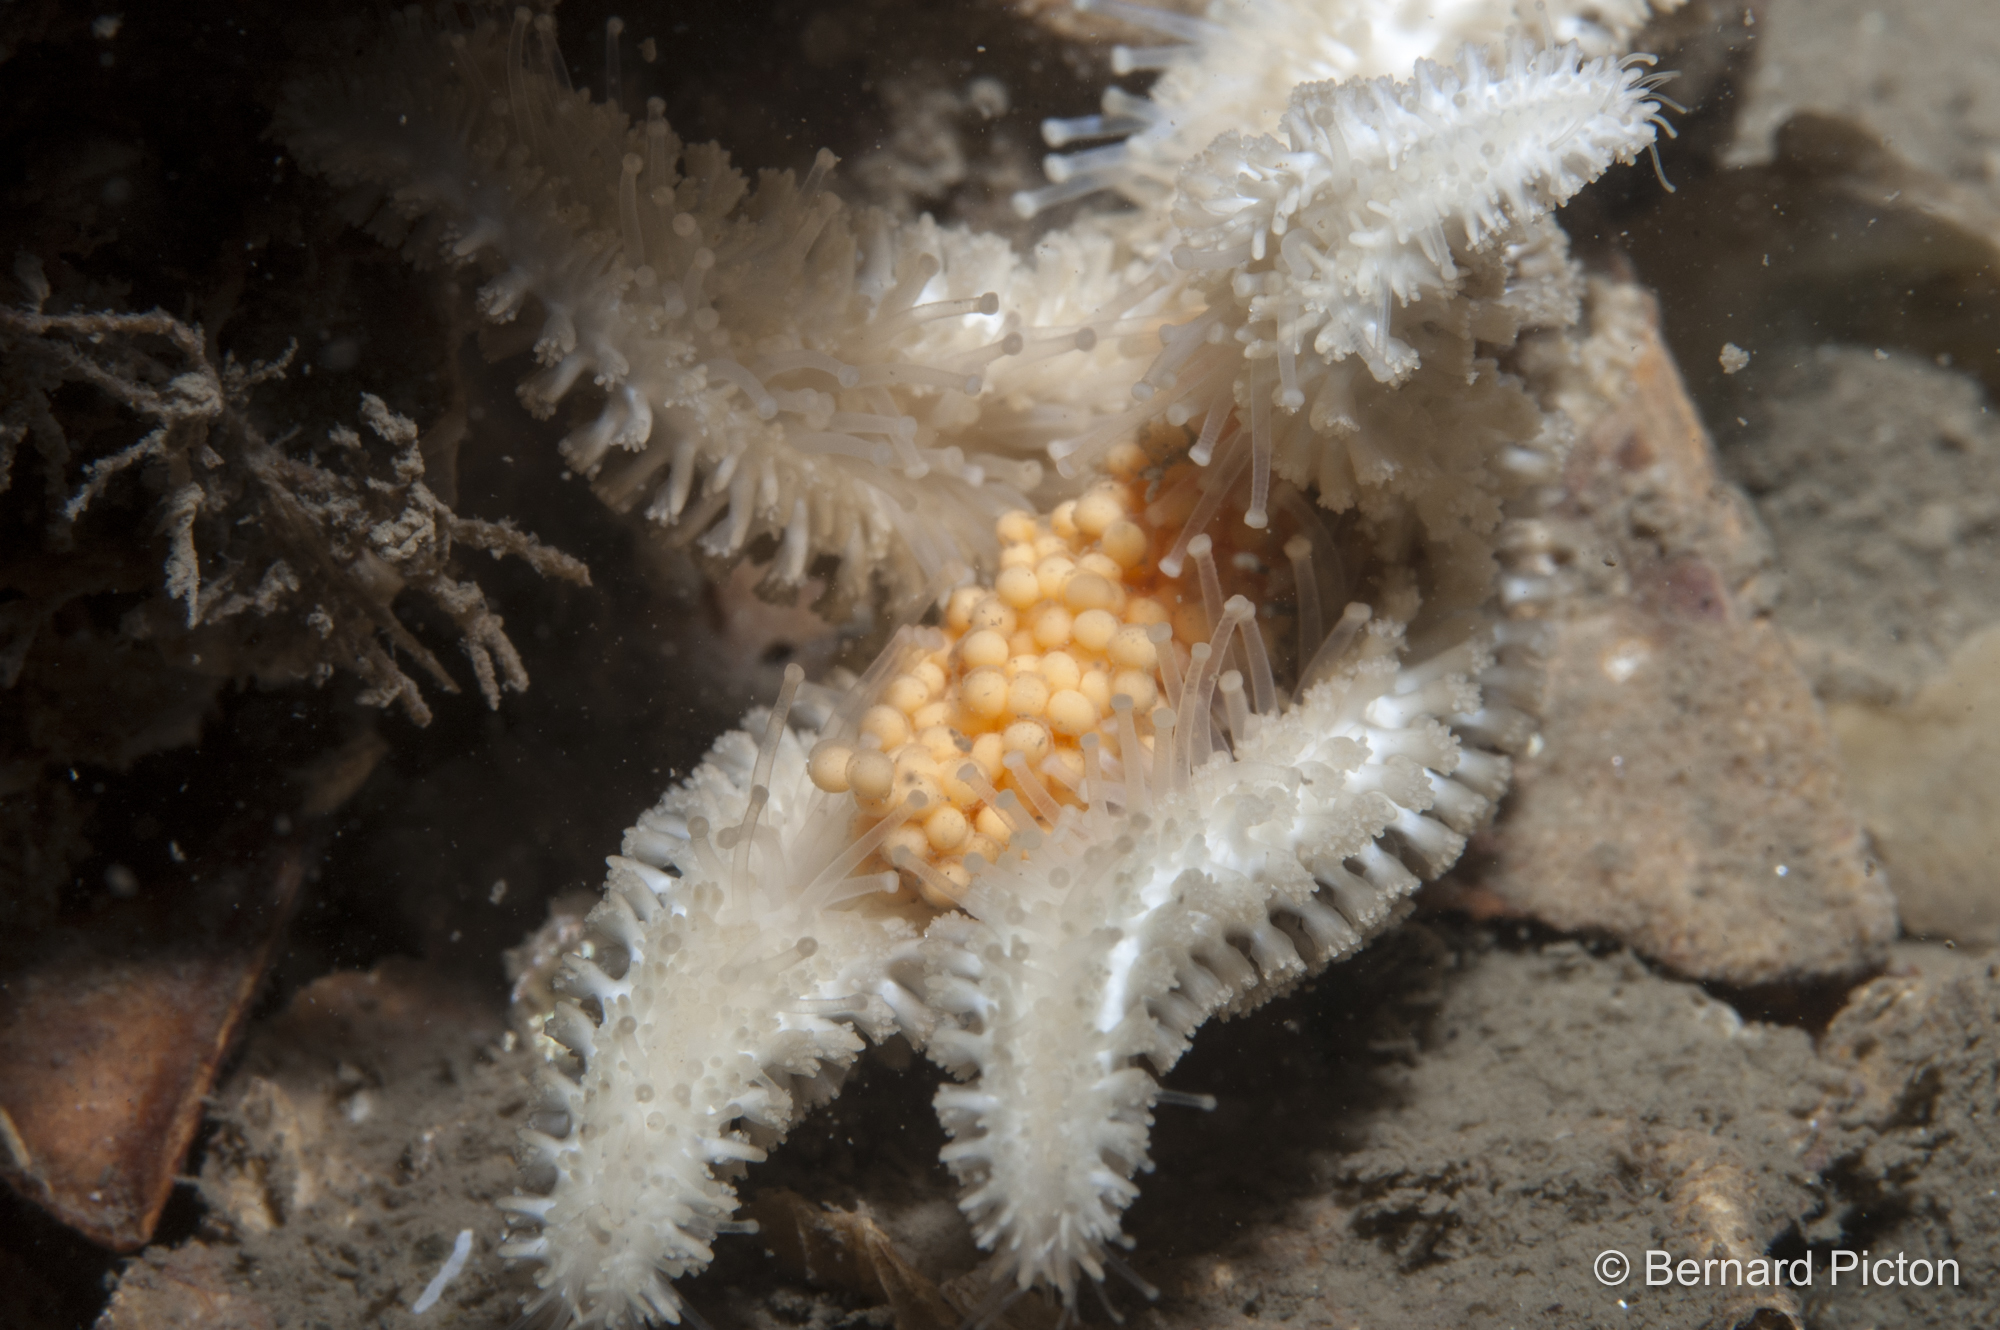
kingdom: Animalia
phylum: Echinodermata
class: Asteroidea
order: Forcipulatida
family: Asteriidae
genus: Leptasterias
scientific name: Leptasterias muelleri
